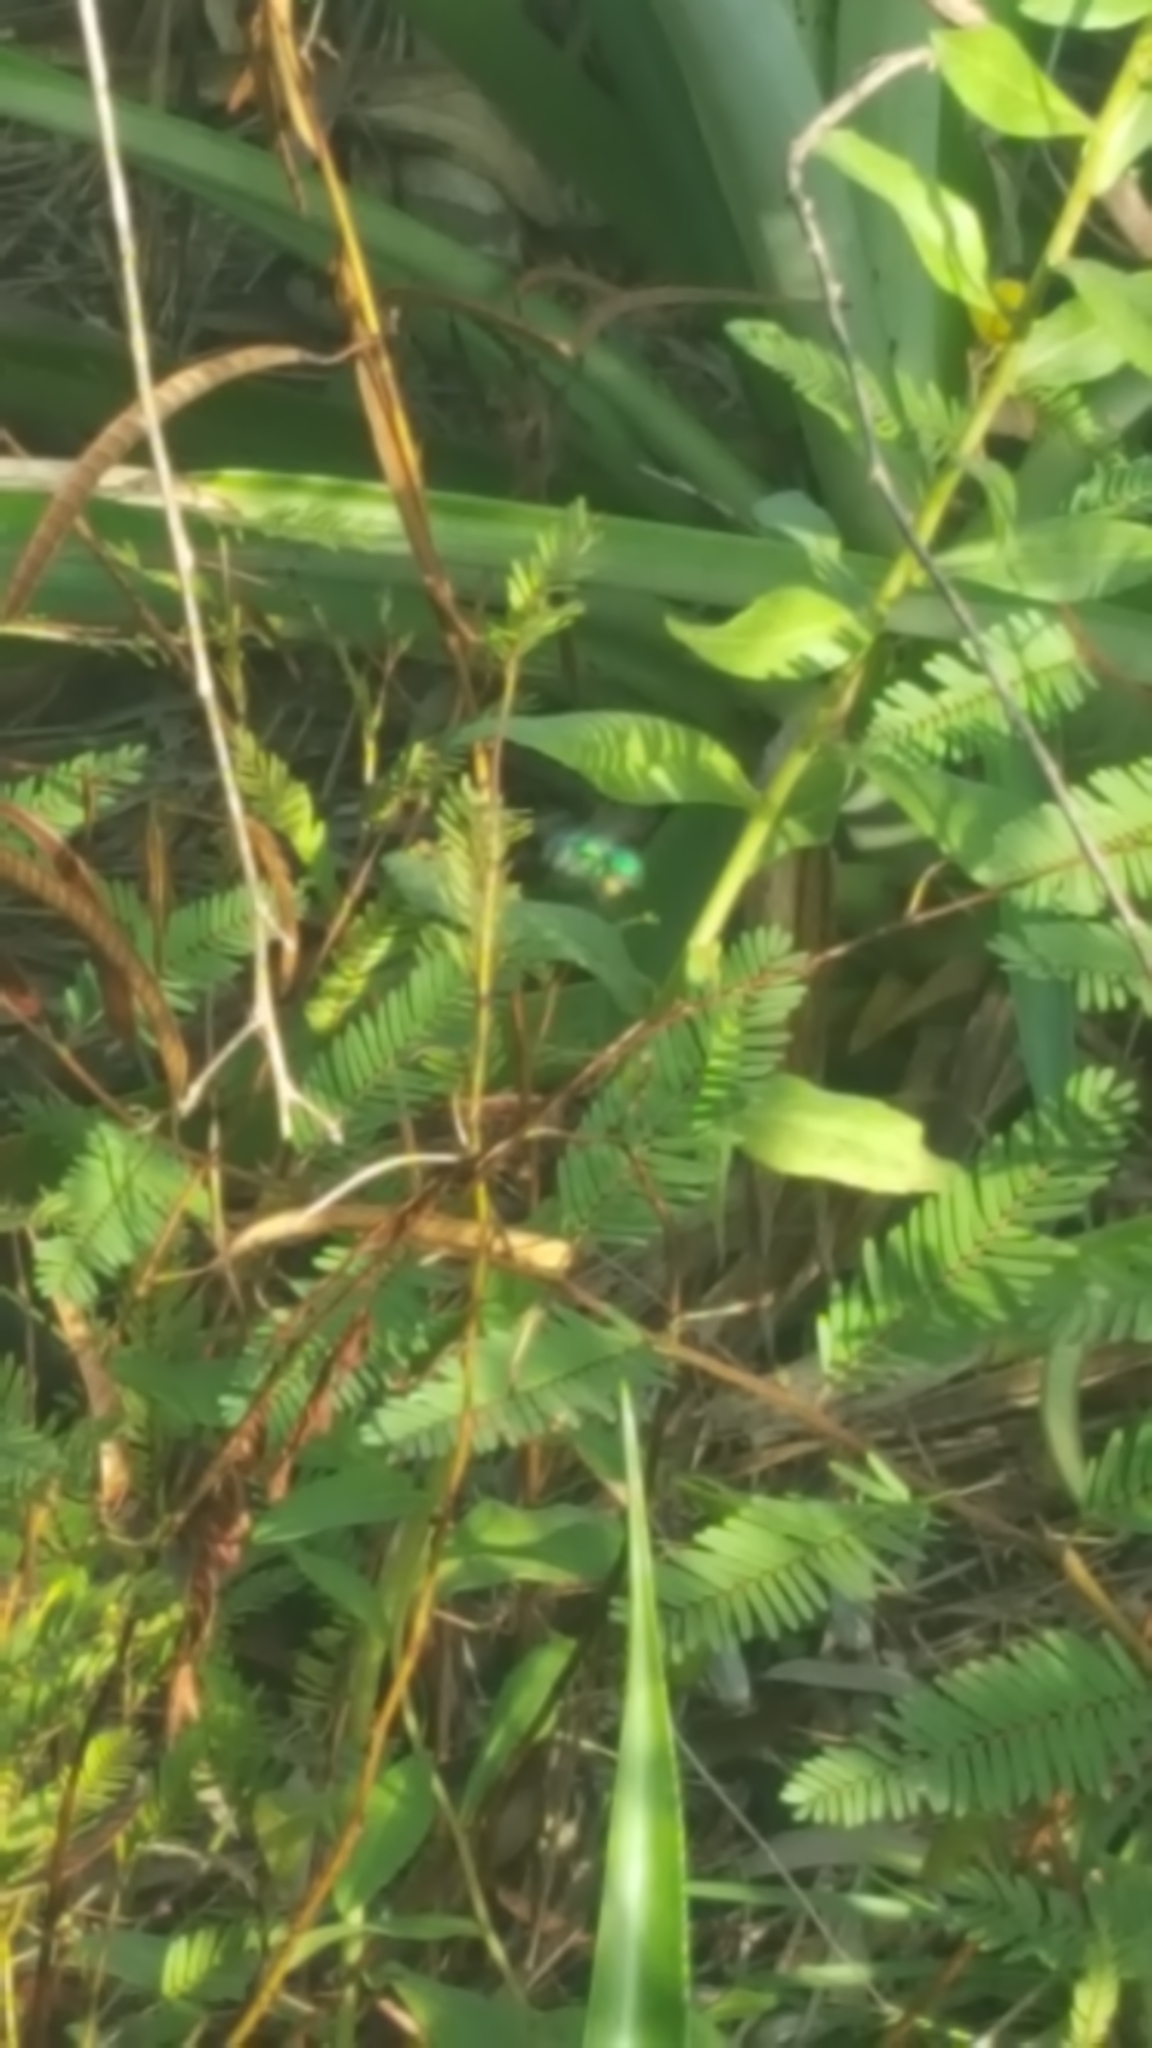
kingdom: Animalia
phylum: Arthropoda
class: Insecta
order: Hymenoptera
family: Apidae
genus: Euglossa
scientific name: Euglossa dilemma
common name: Green orchid bee
